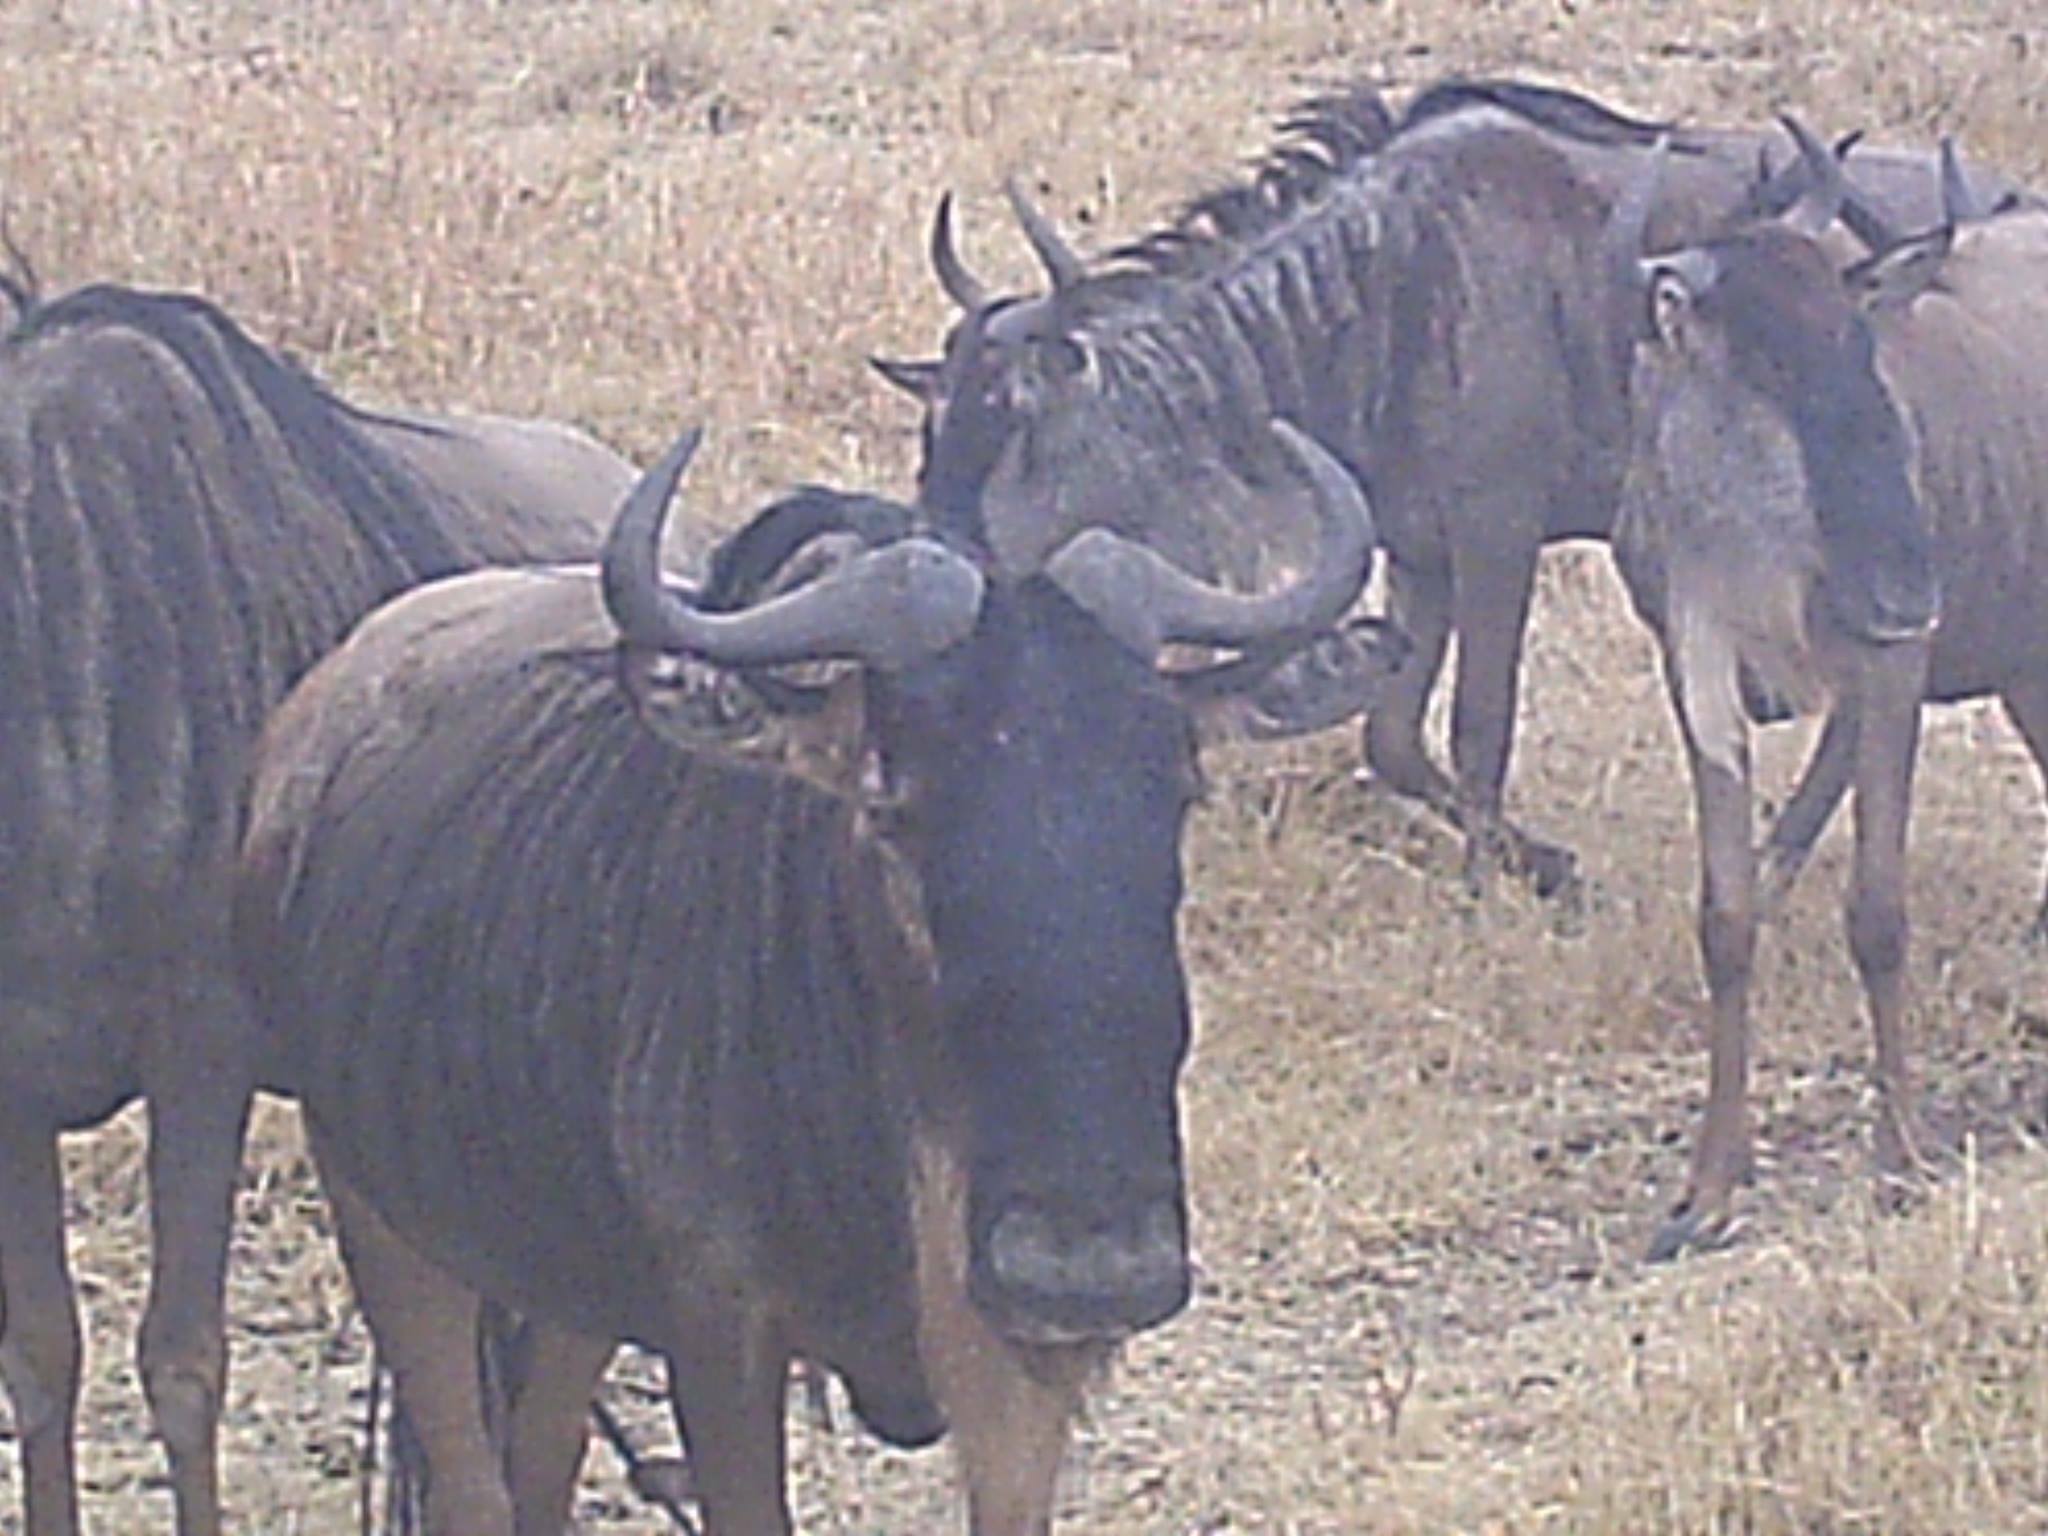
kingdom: Animalia
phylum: Chordata
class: Mammalia
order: Artiodactyla
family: Bovidae
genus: Connochaetes
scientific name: Connochaetes taurinus
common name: Blue wildebeest
